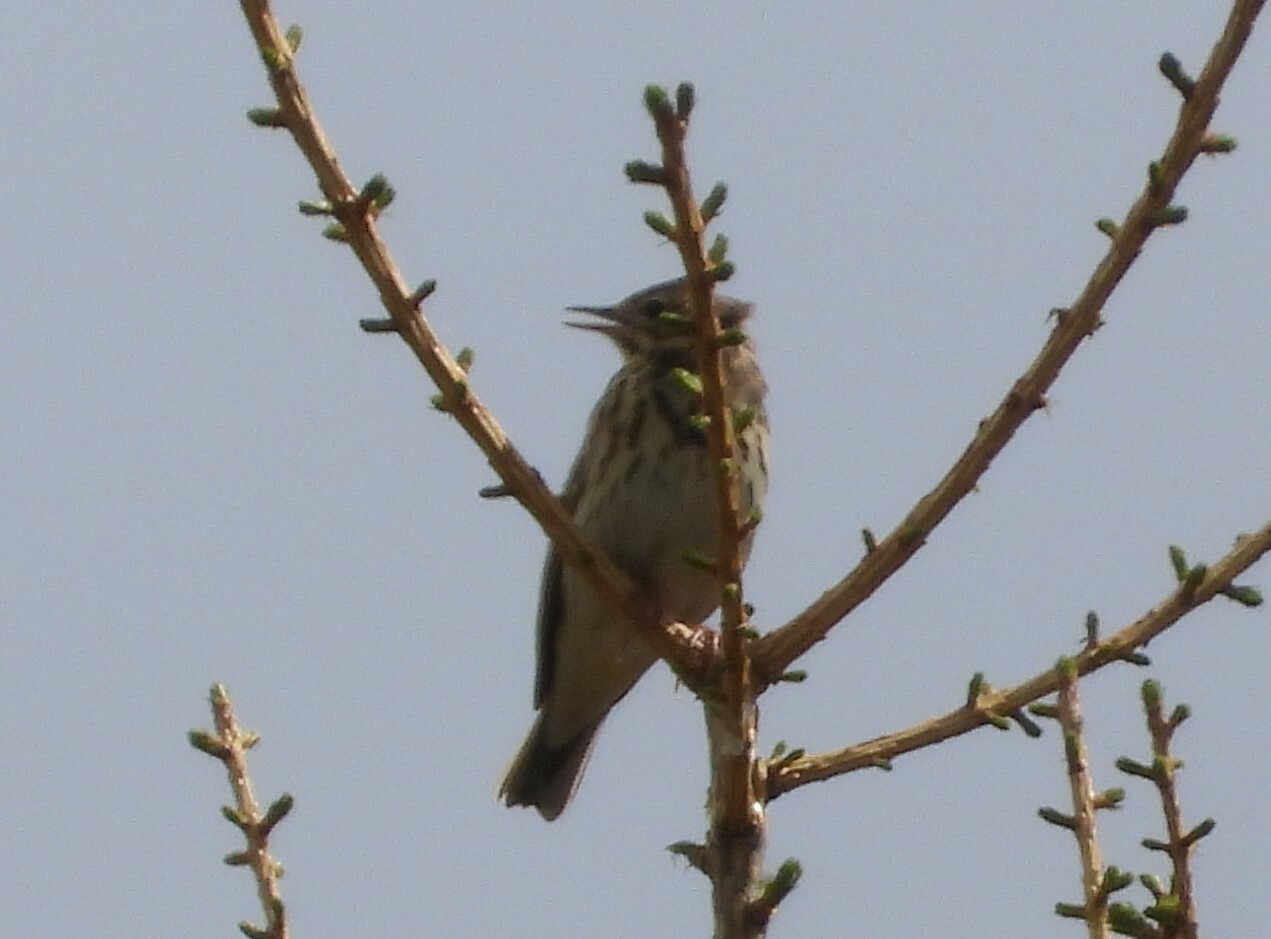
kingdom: Animalia
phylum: Chordata
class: Aves
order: Passeriformes
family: Motacillidae
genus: Anthus
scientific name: Anthus trivialis
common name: Tree pipit
